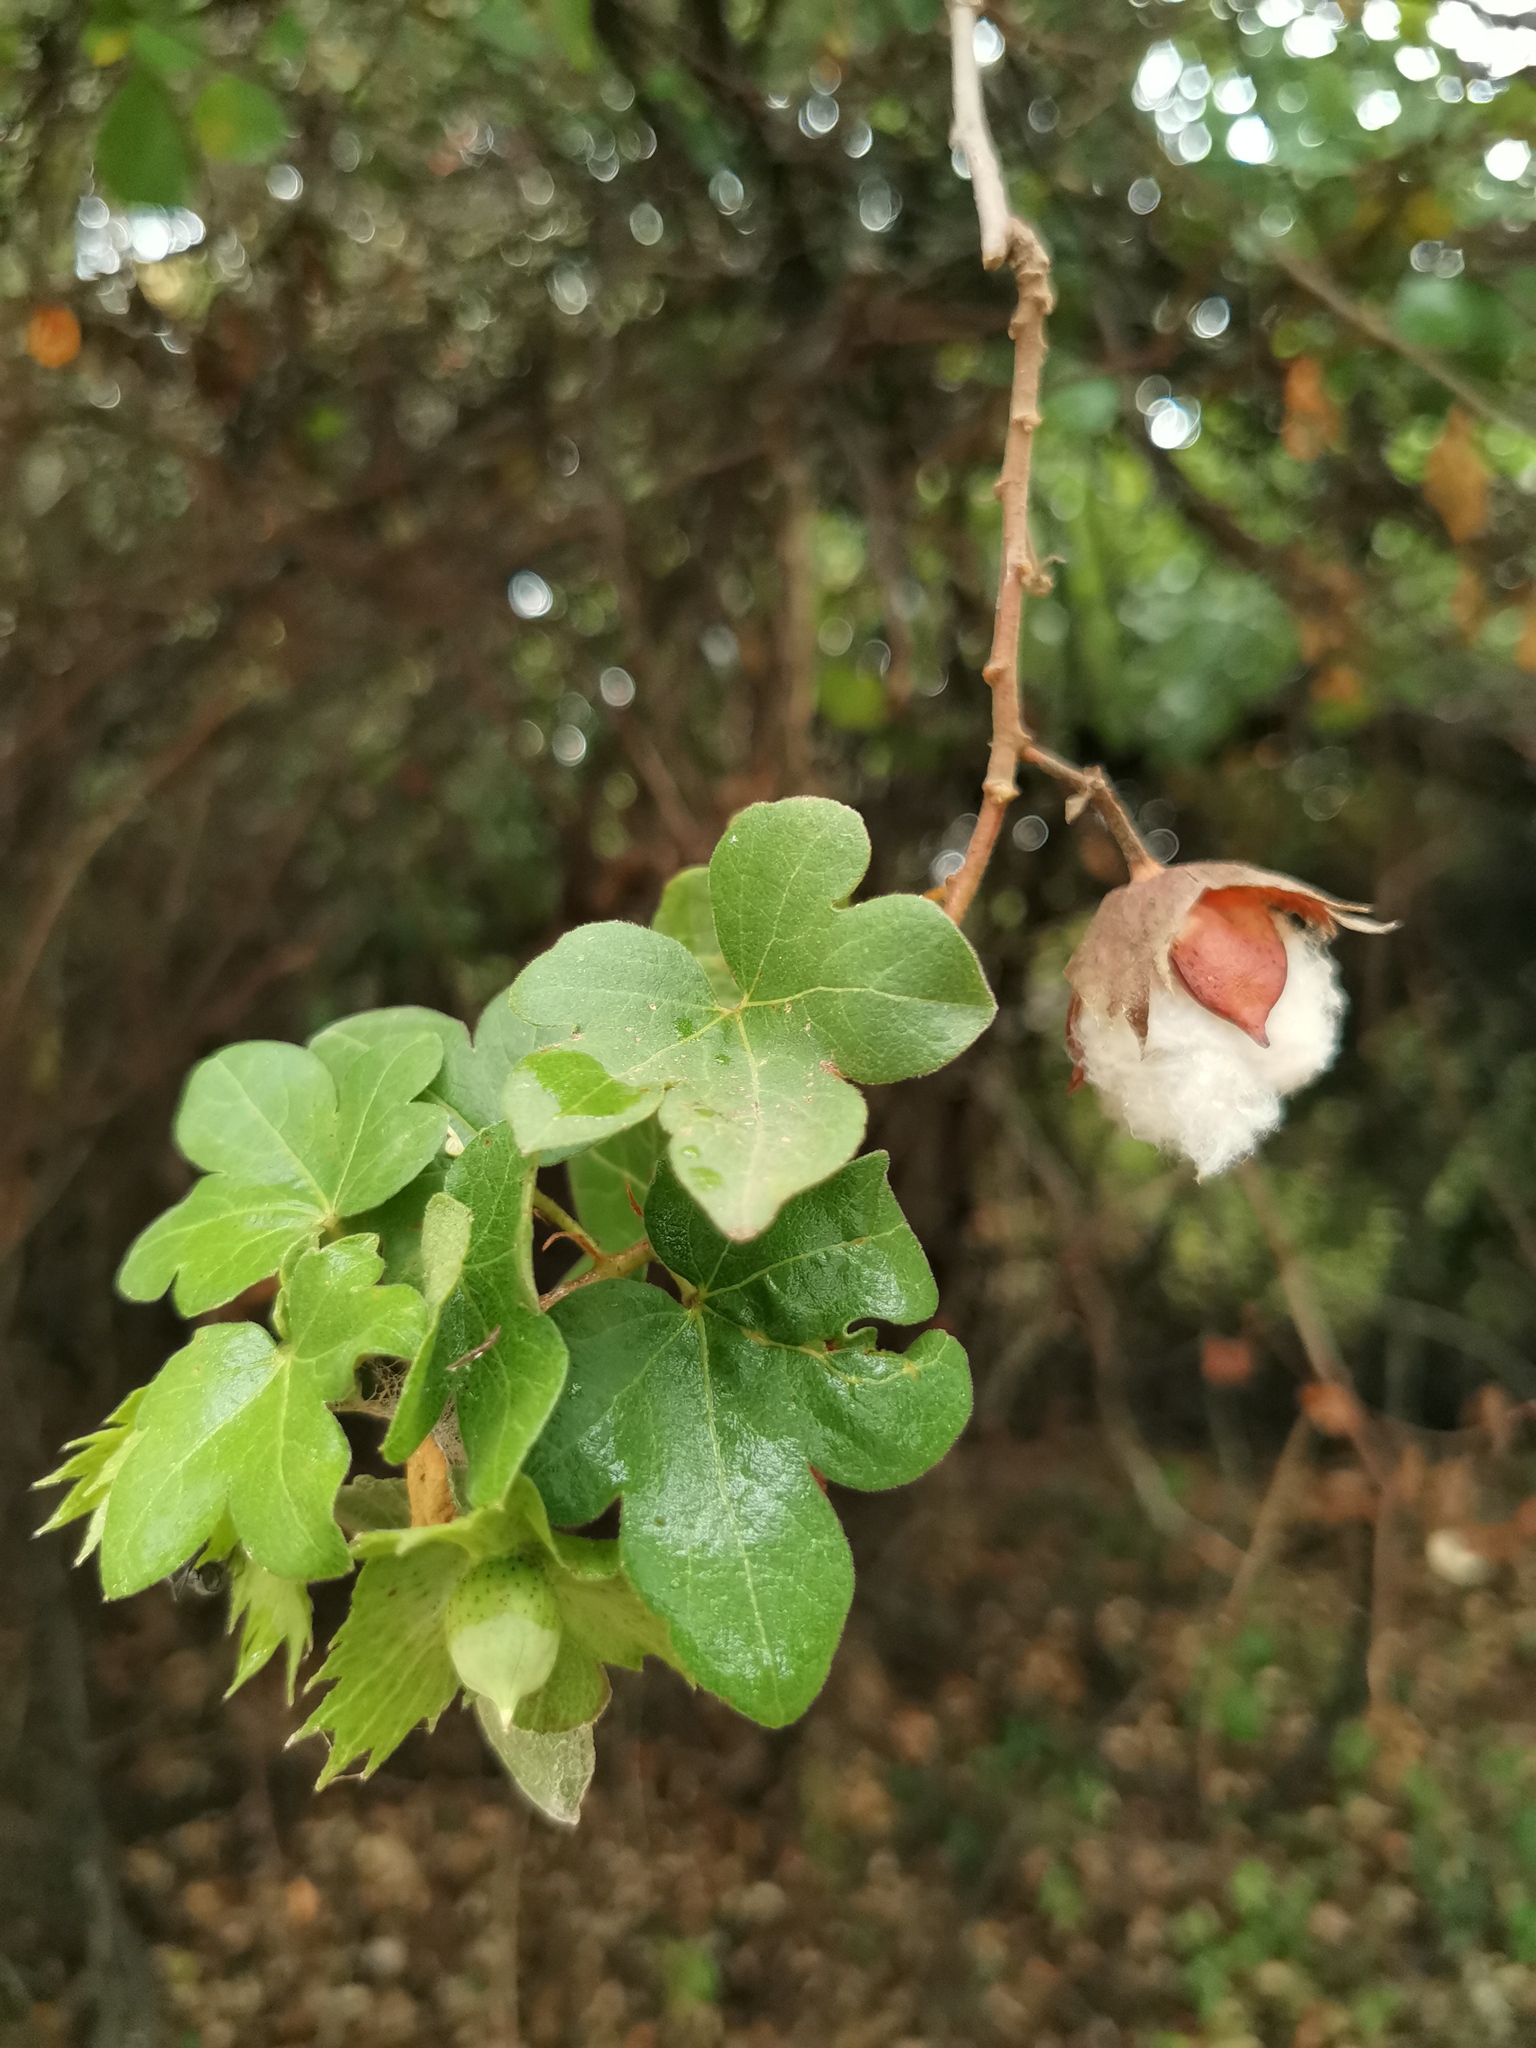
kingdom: Plantae
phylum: Tracheophyta
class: Magnoliopsida
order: Malvales
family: Malvaceae
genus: Gossypium
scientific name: Gossypium herbaceum
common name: Levant cotton
